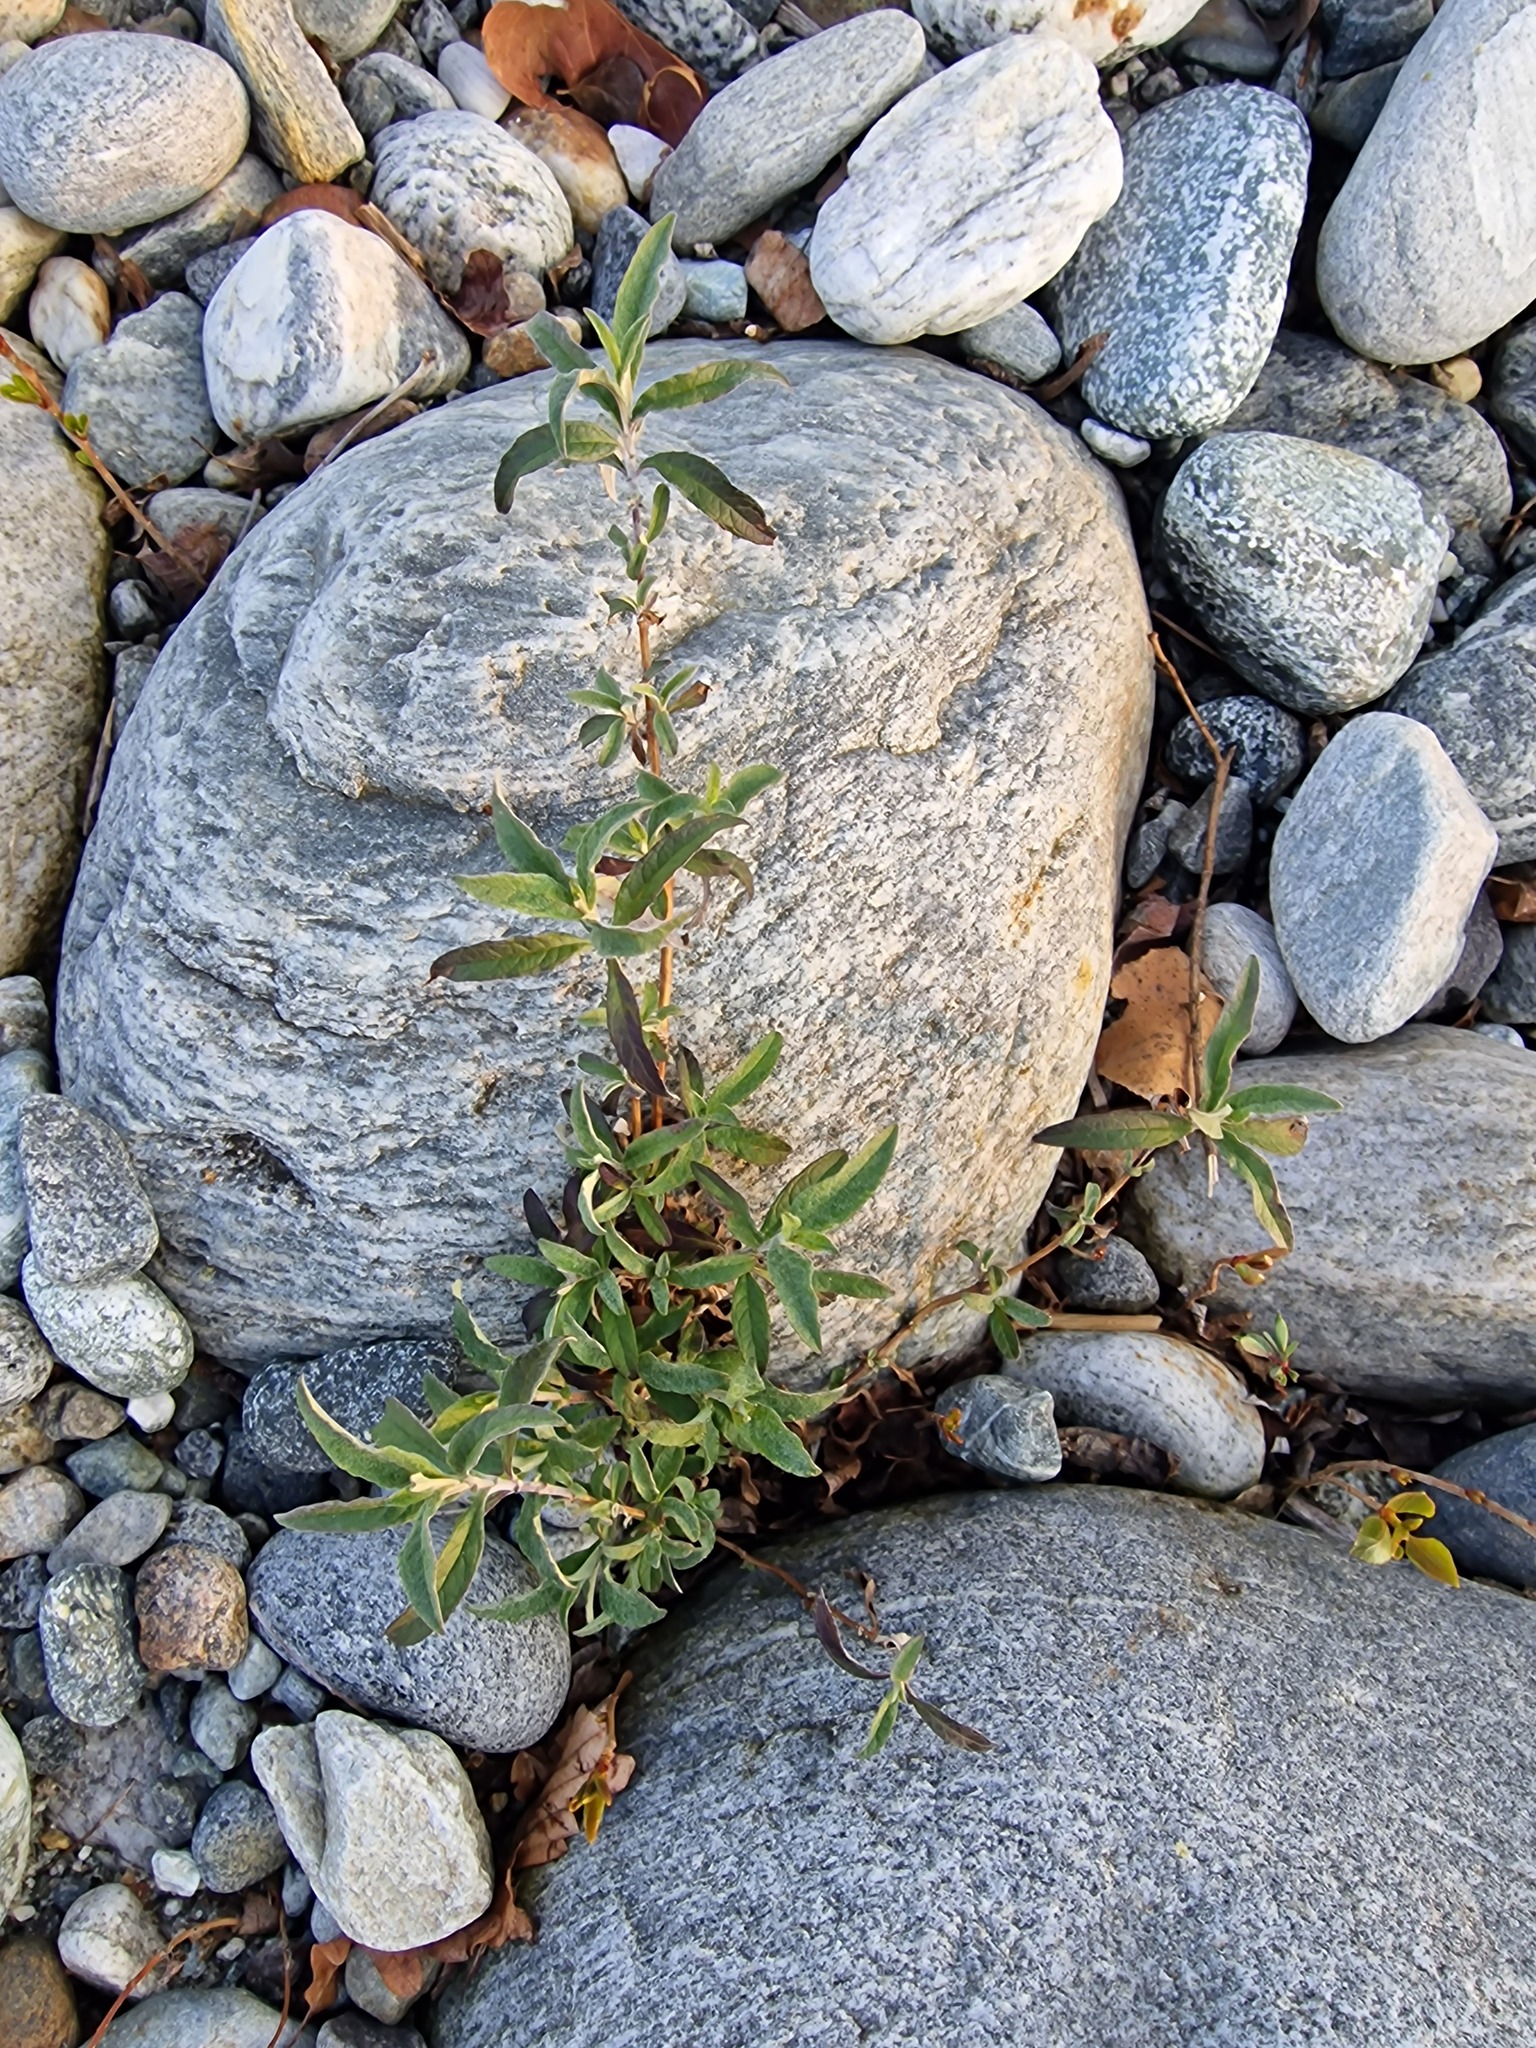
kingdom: Plantae
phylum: Tracheophyta
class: Magnoliopsida
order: Lamiales
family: Scrophulariaceae
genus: Buddleja
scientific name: Buddleja davidii
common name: Butterfly-bush
